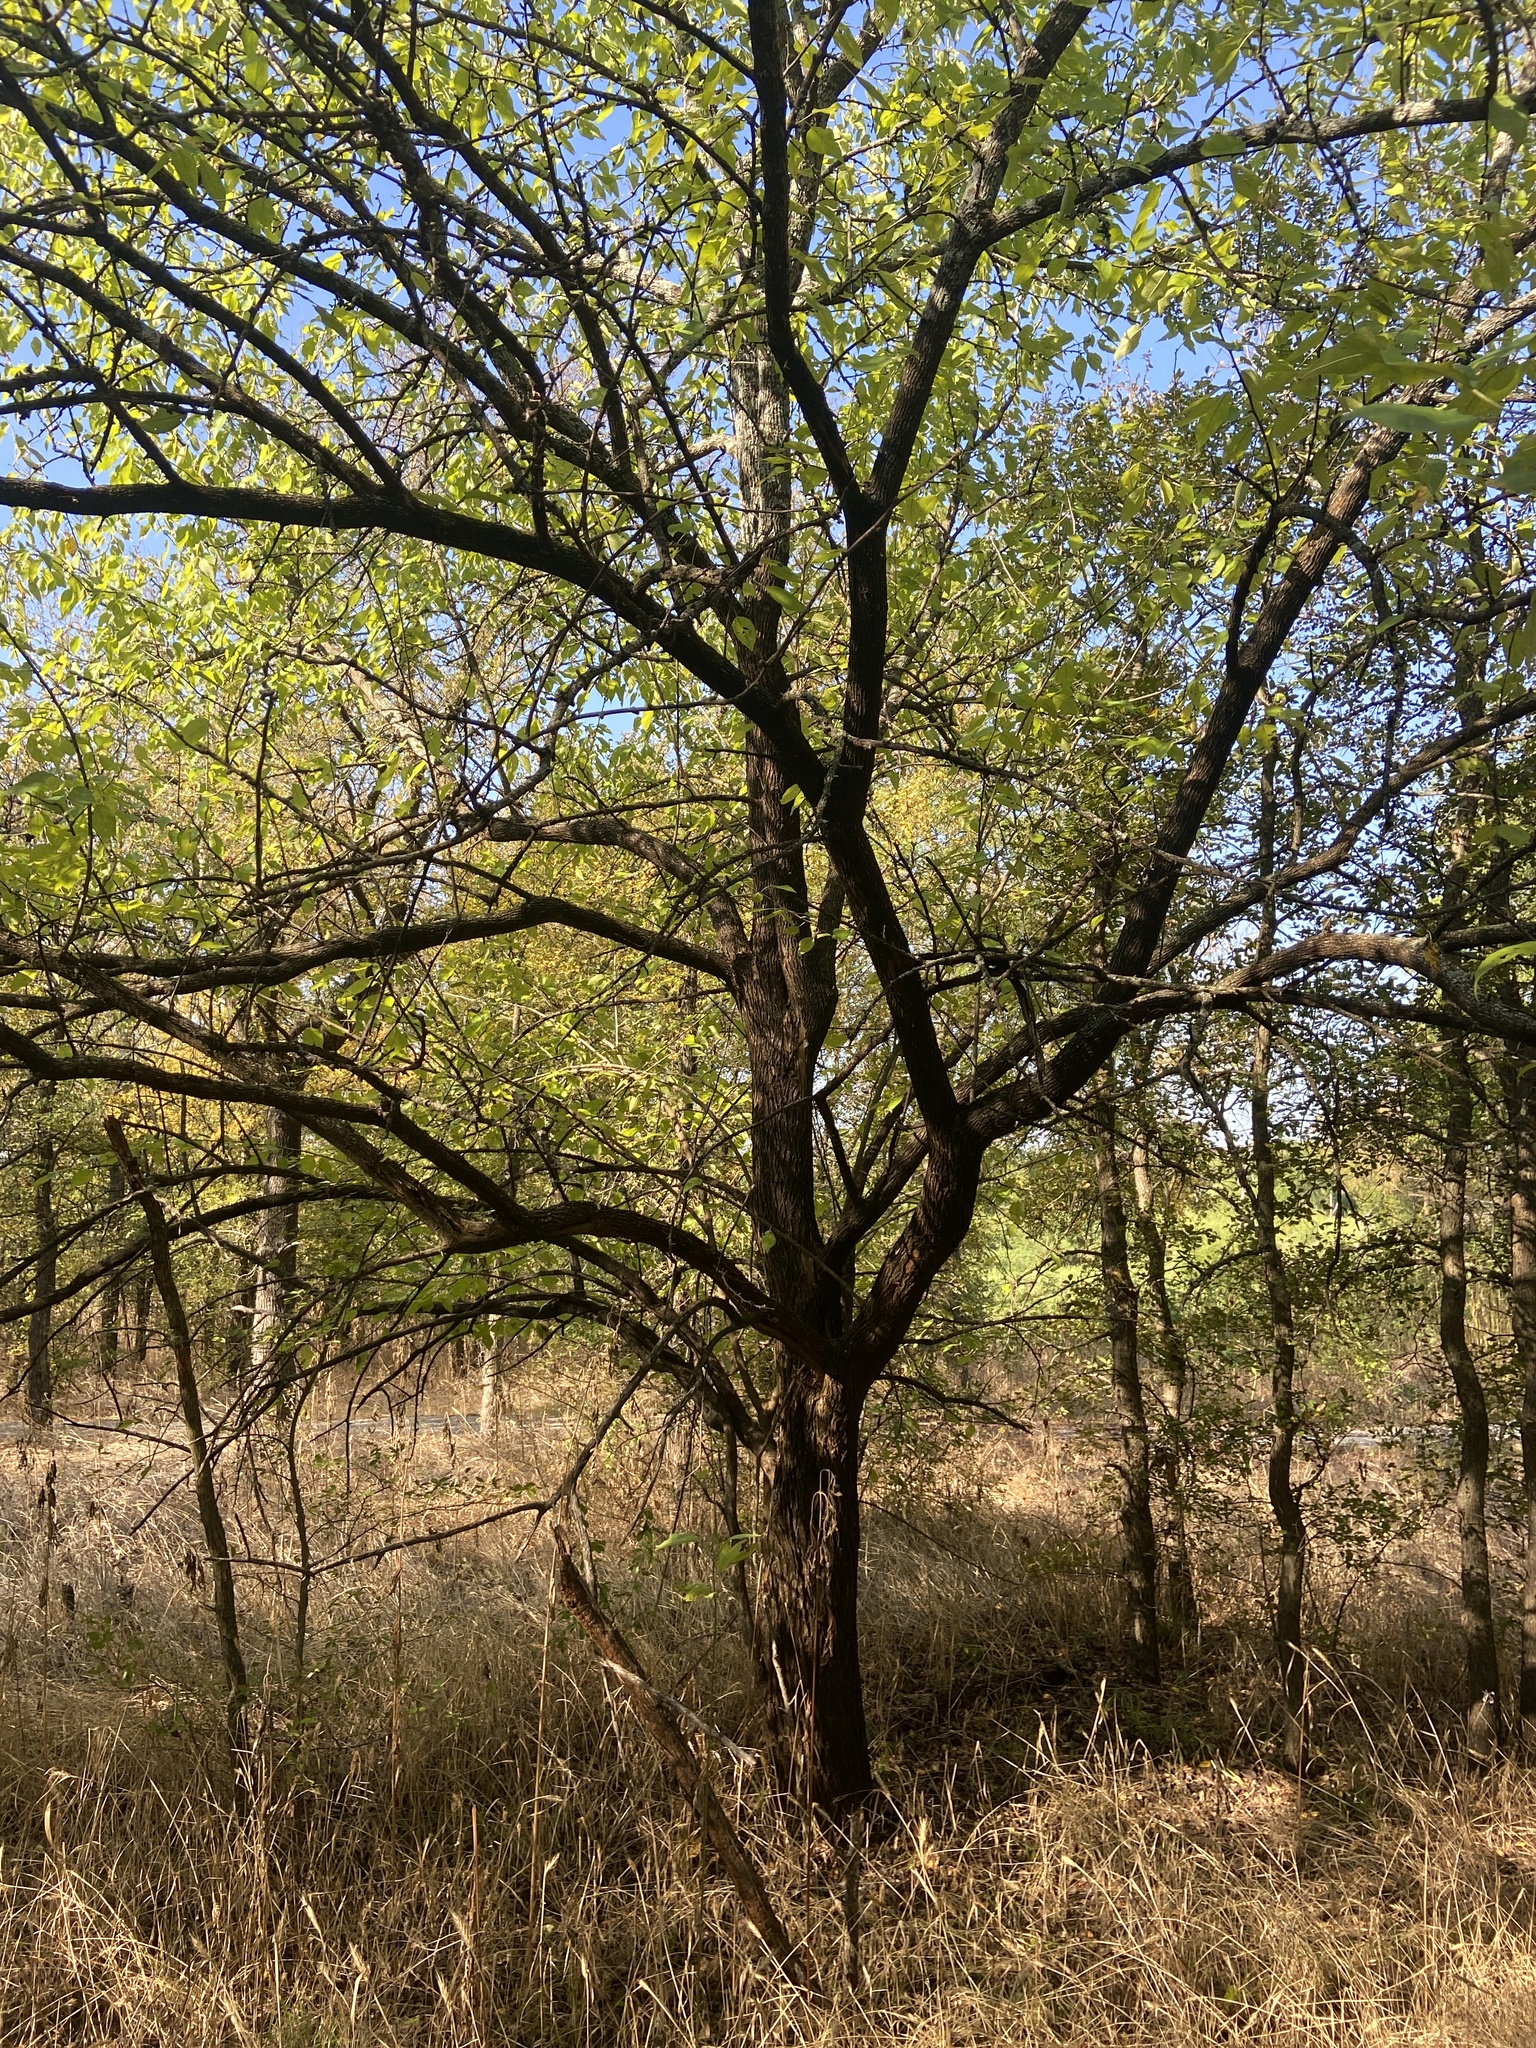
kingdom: Plantae
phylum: Tracheophyta
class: Magnoliopsida
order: Rosales
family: Moraceae
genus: Maclura
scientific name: Maclura pomifera
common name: Osage-orange
